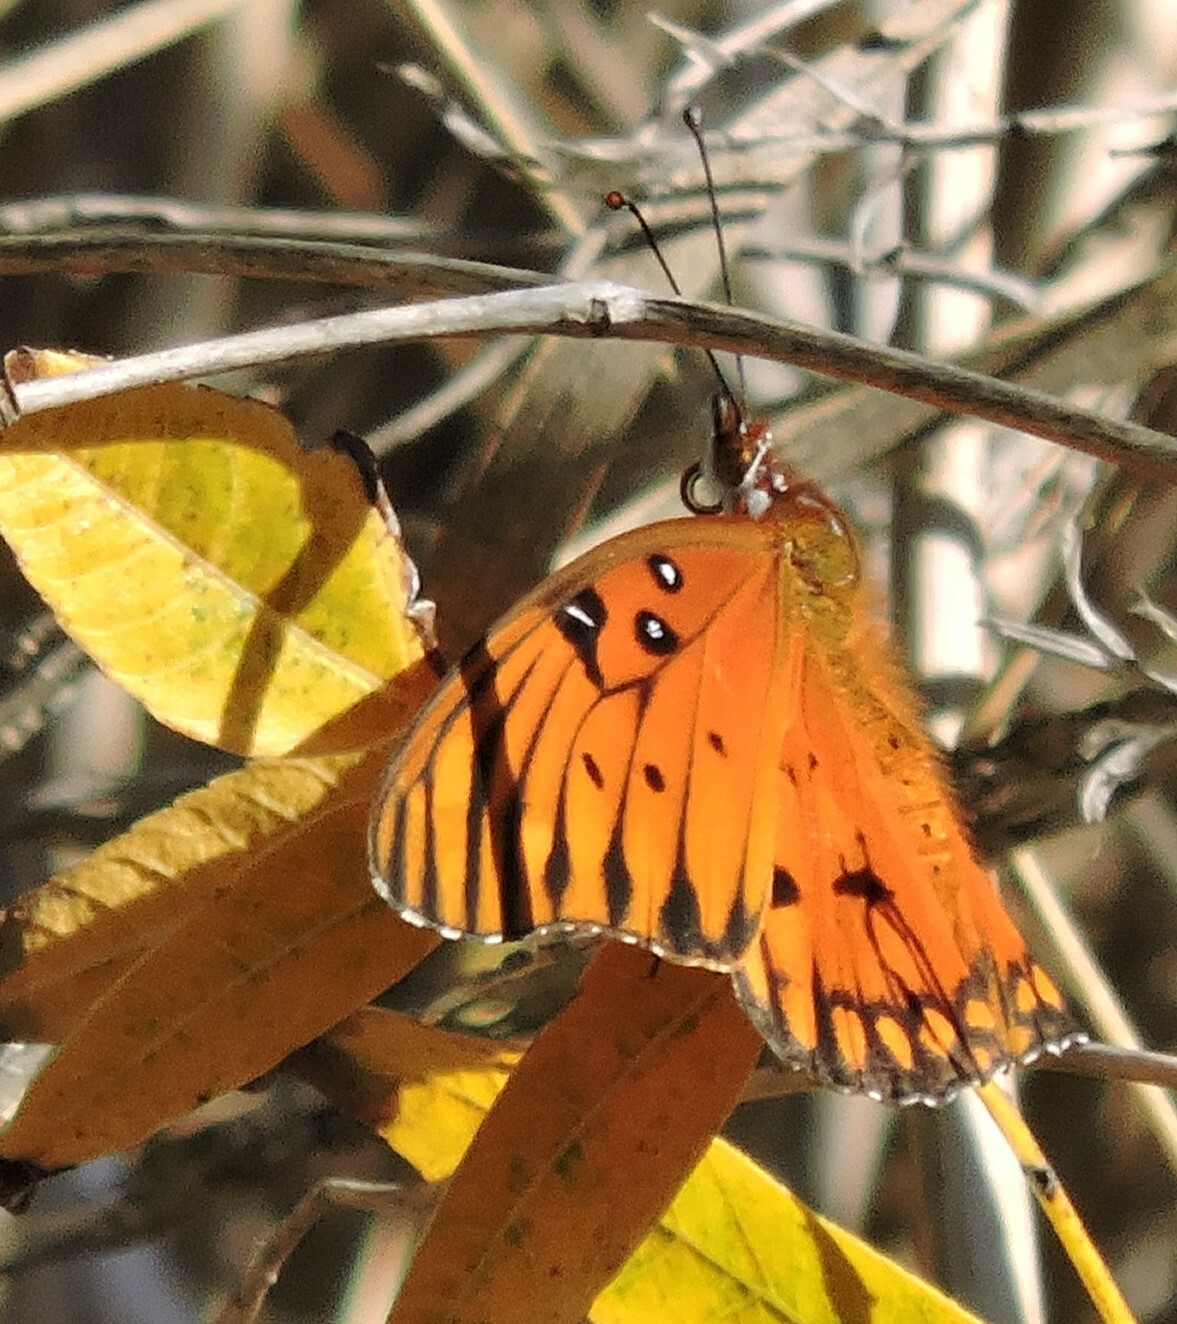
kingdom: Animalia
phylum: Arthropoda
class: Insecta
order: Lepidoptera
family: Nymphalidae
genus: Dione
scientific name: Dione vanillae
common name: Gulf fritillary
